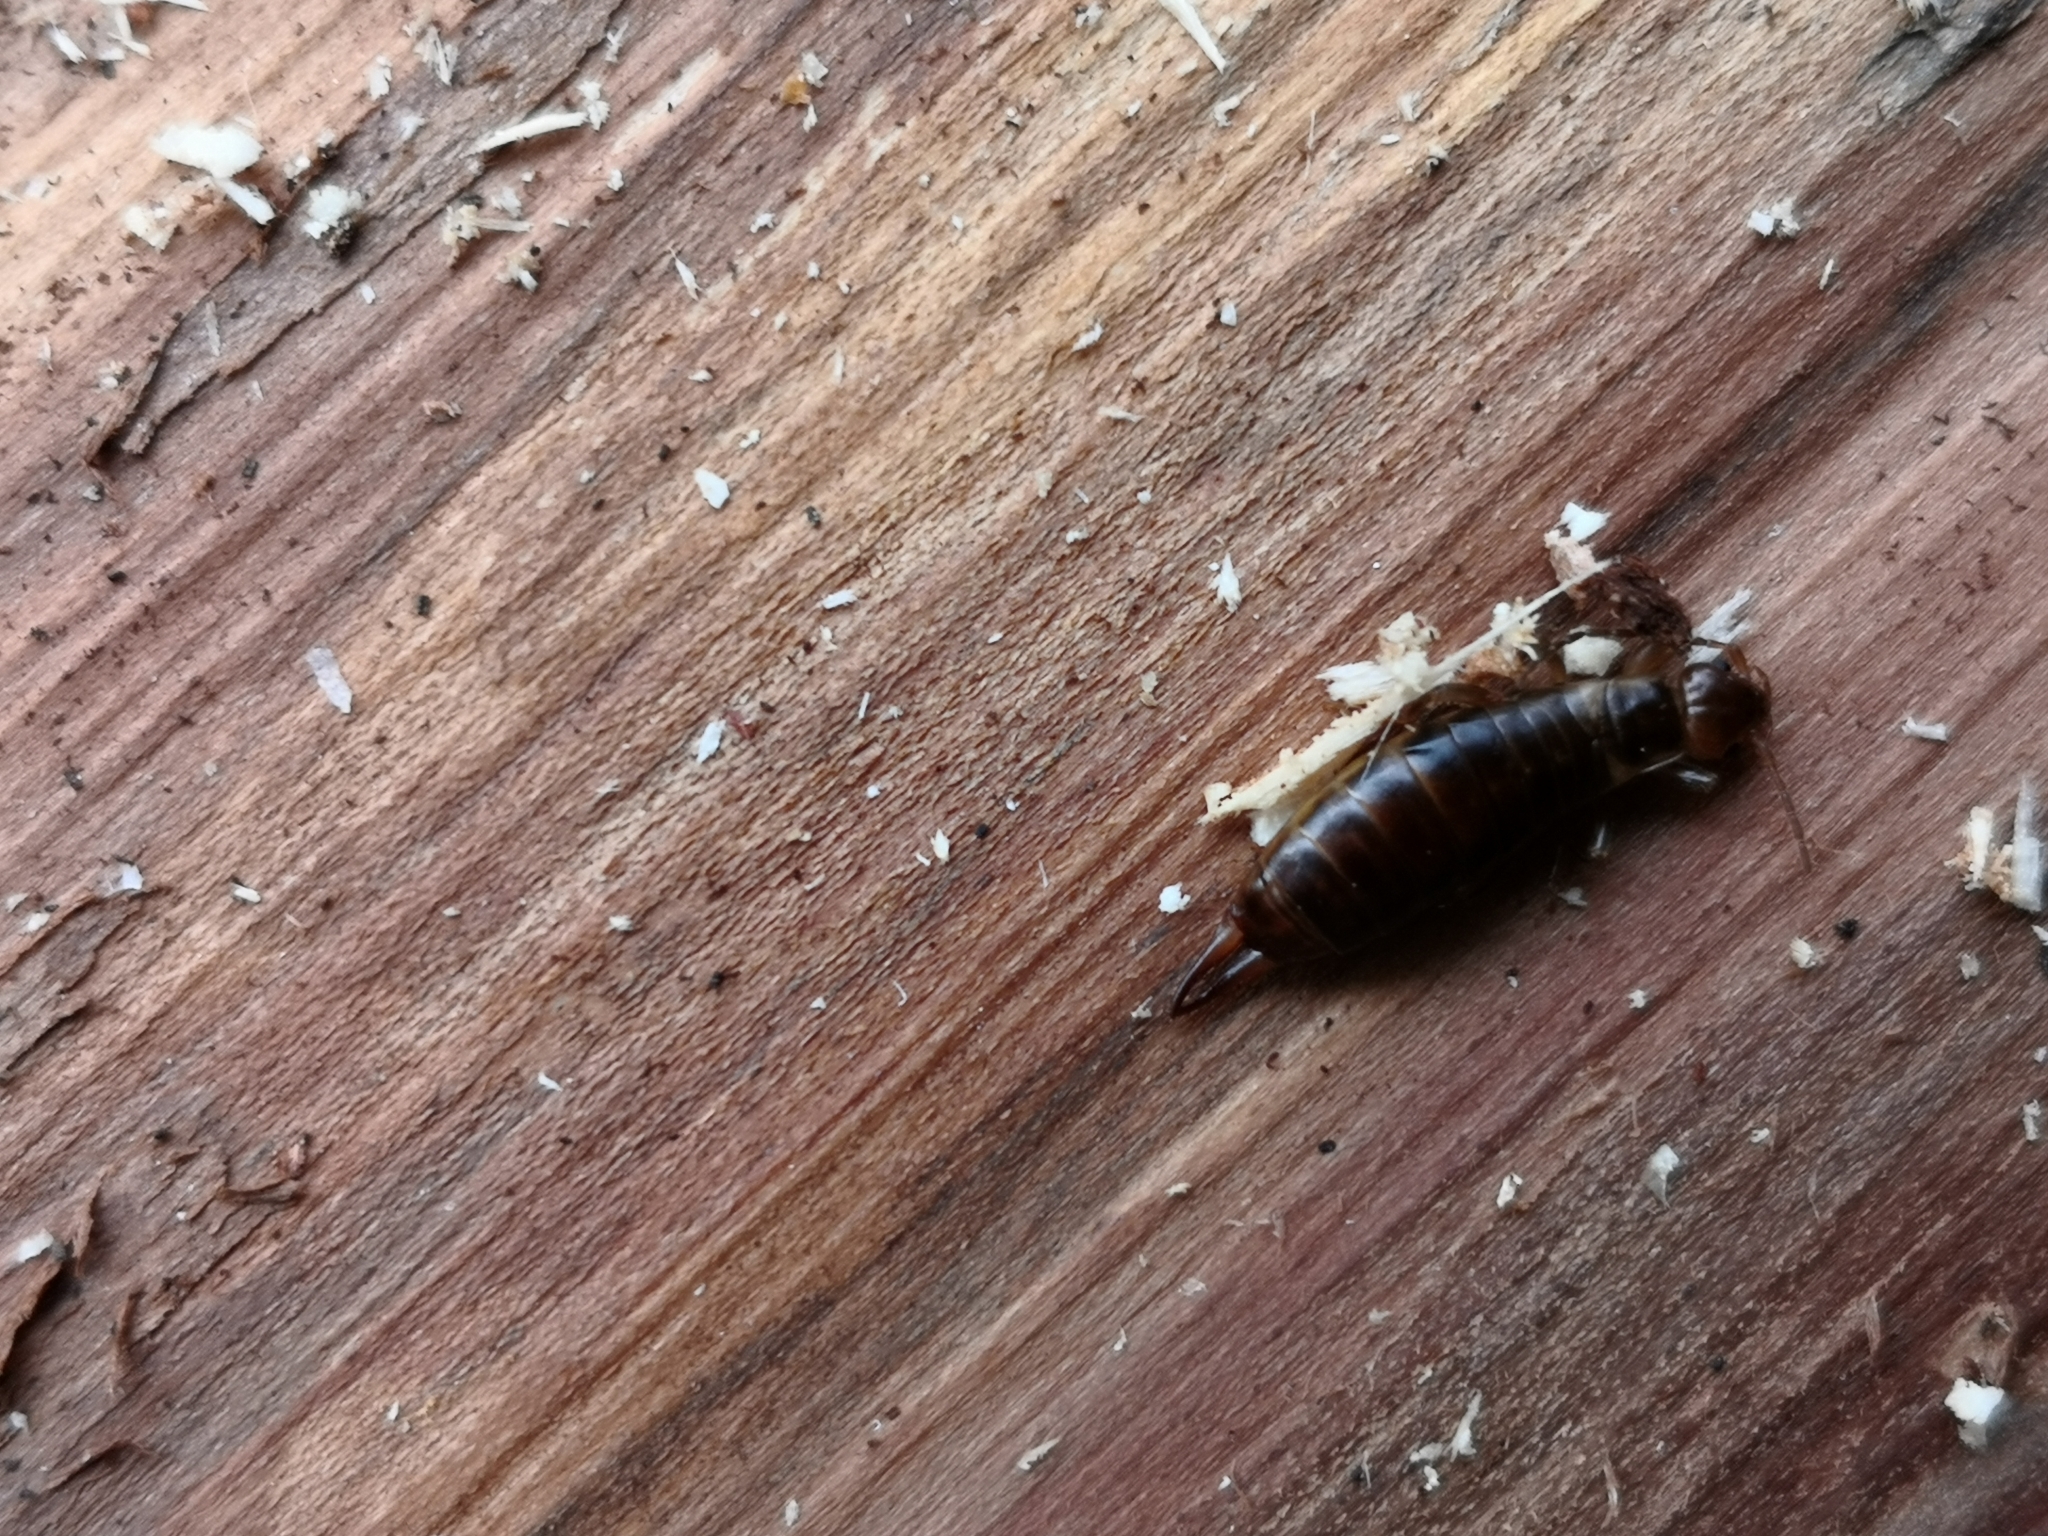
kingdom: Animalia
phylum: Arthropoda
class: Insecta
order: Dermaptera
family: Forficulidae
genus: Chelidurella
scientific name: Chelidurella acanthopygia
